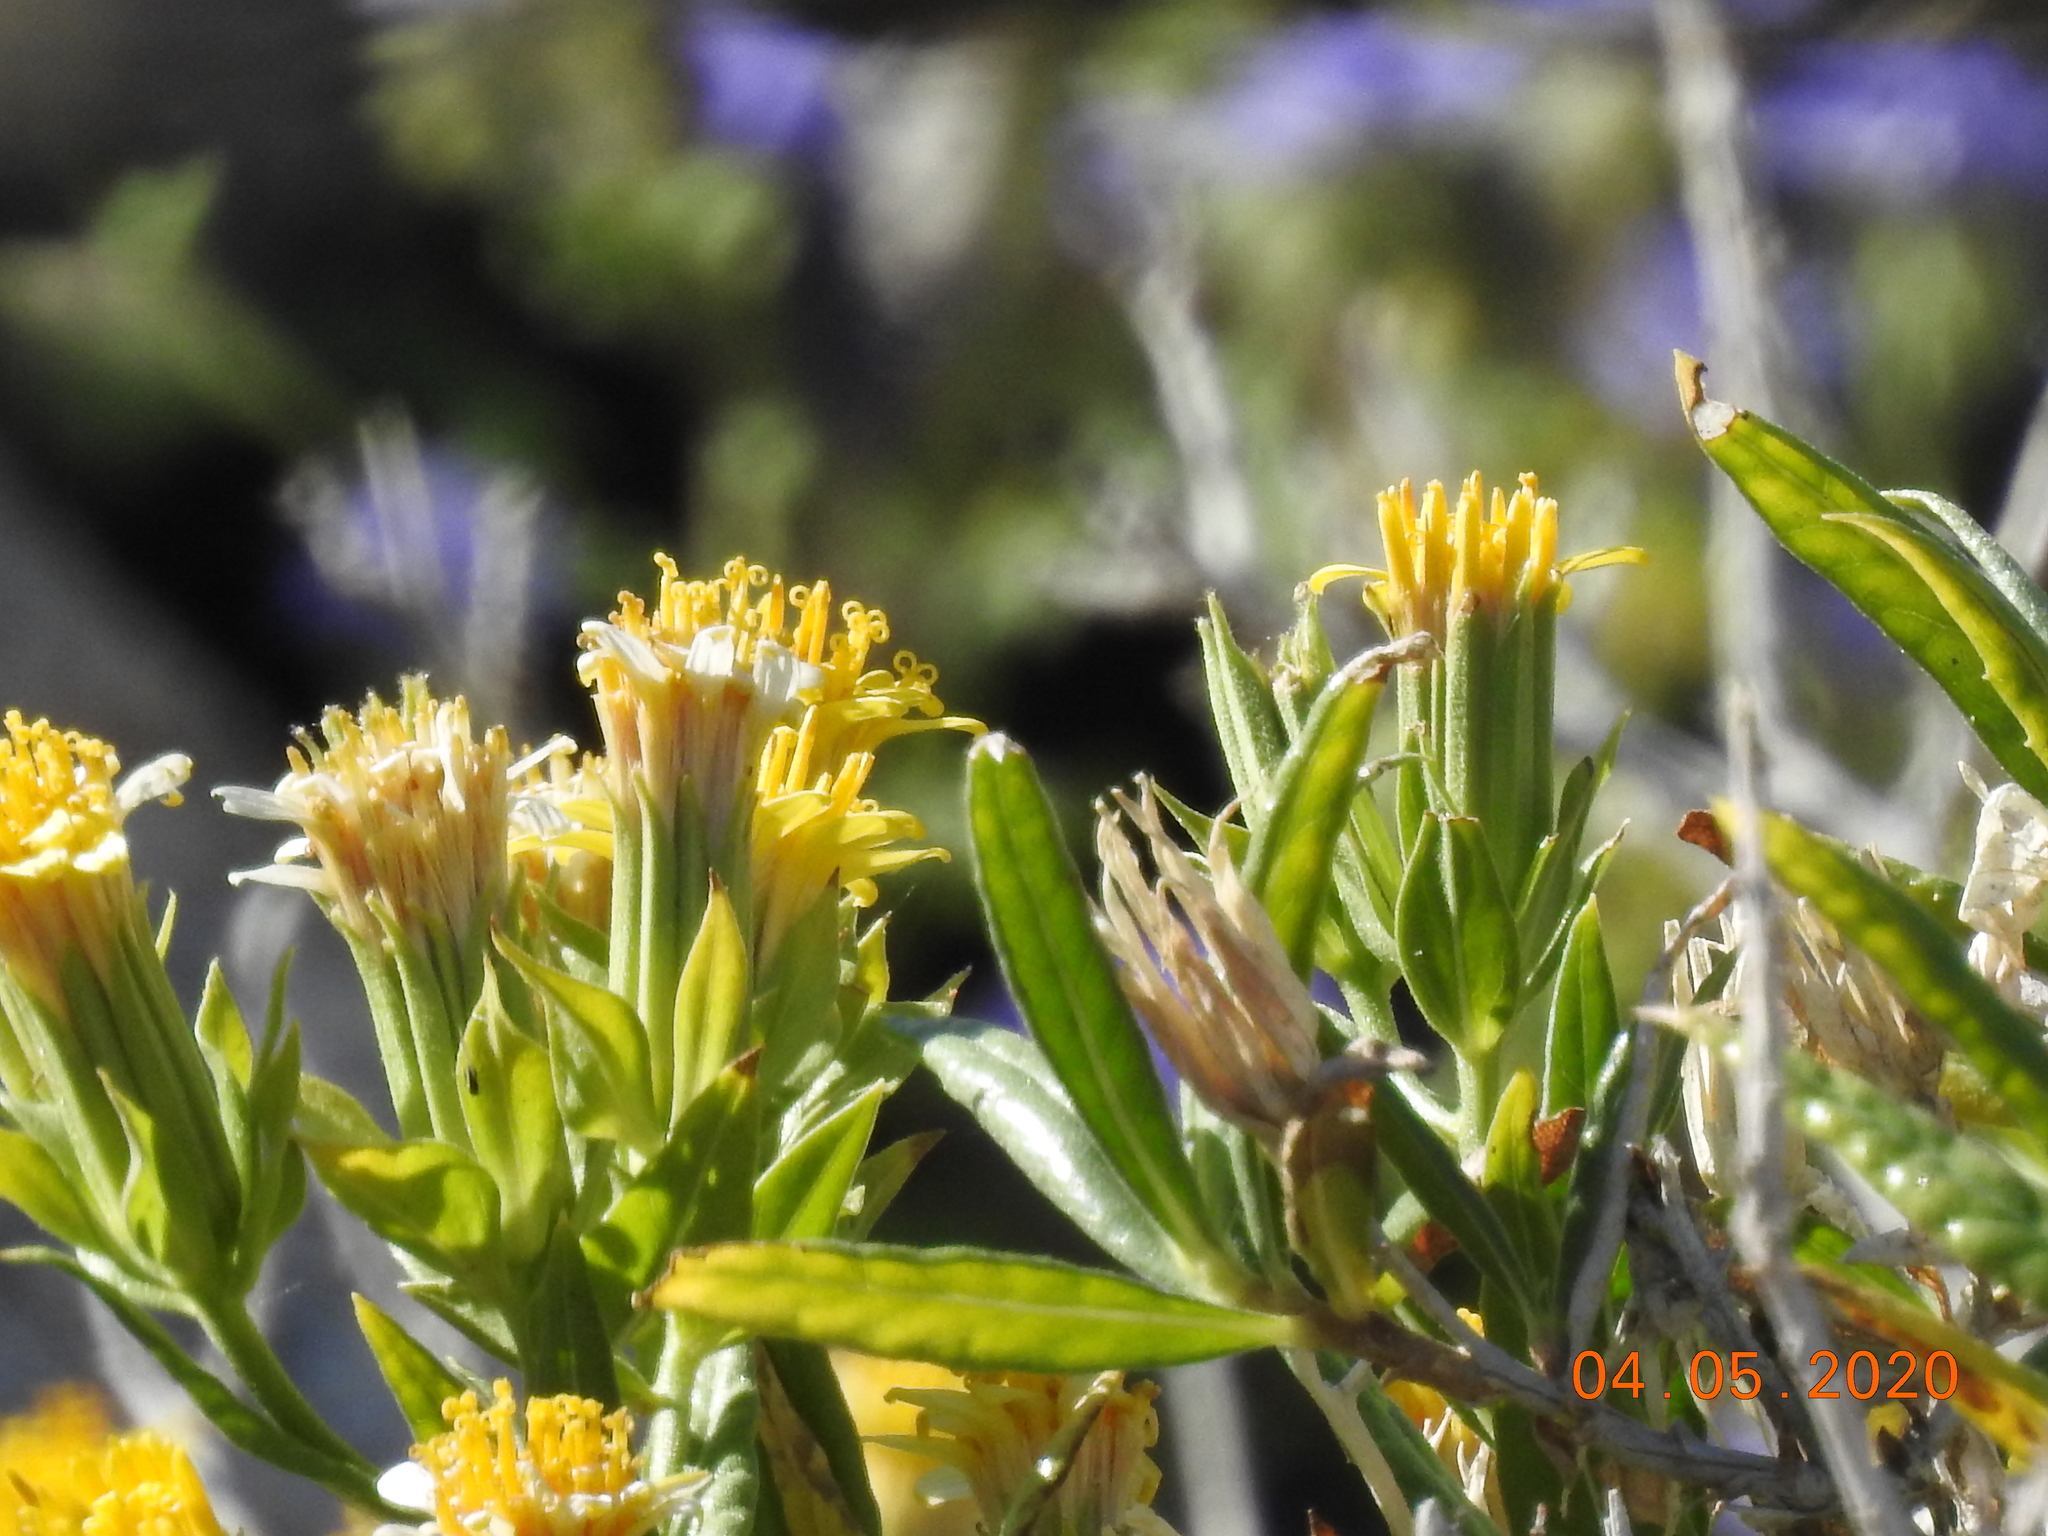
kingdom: Plantae
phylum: Tracheophyta
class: Magnoliopsida
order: Asterales
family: Asteraceae
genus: Trixis
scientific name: Trixis californica
